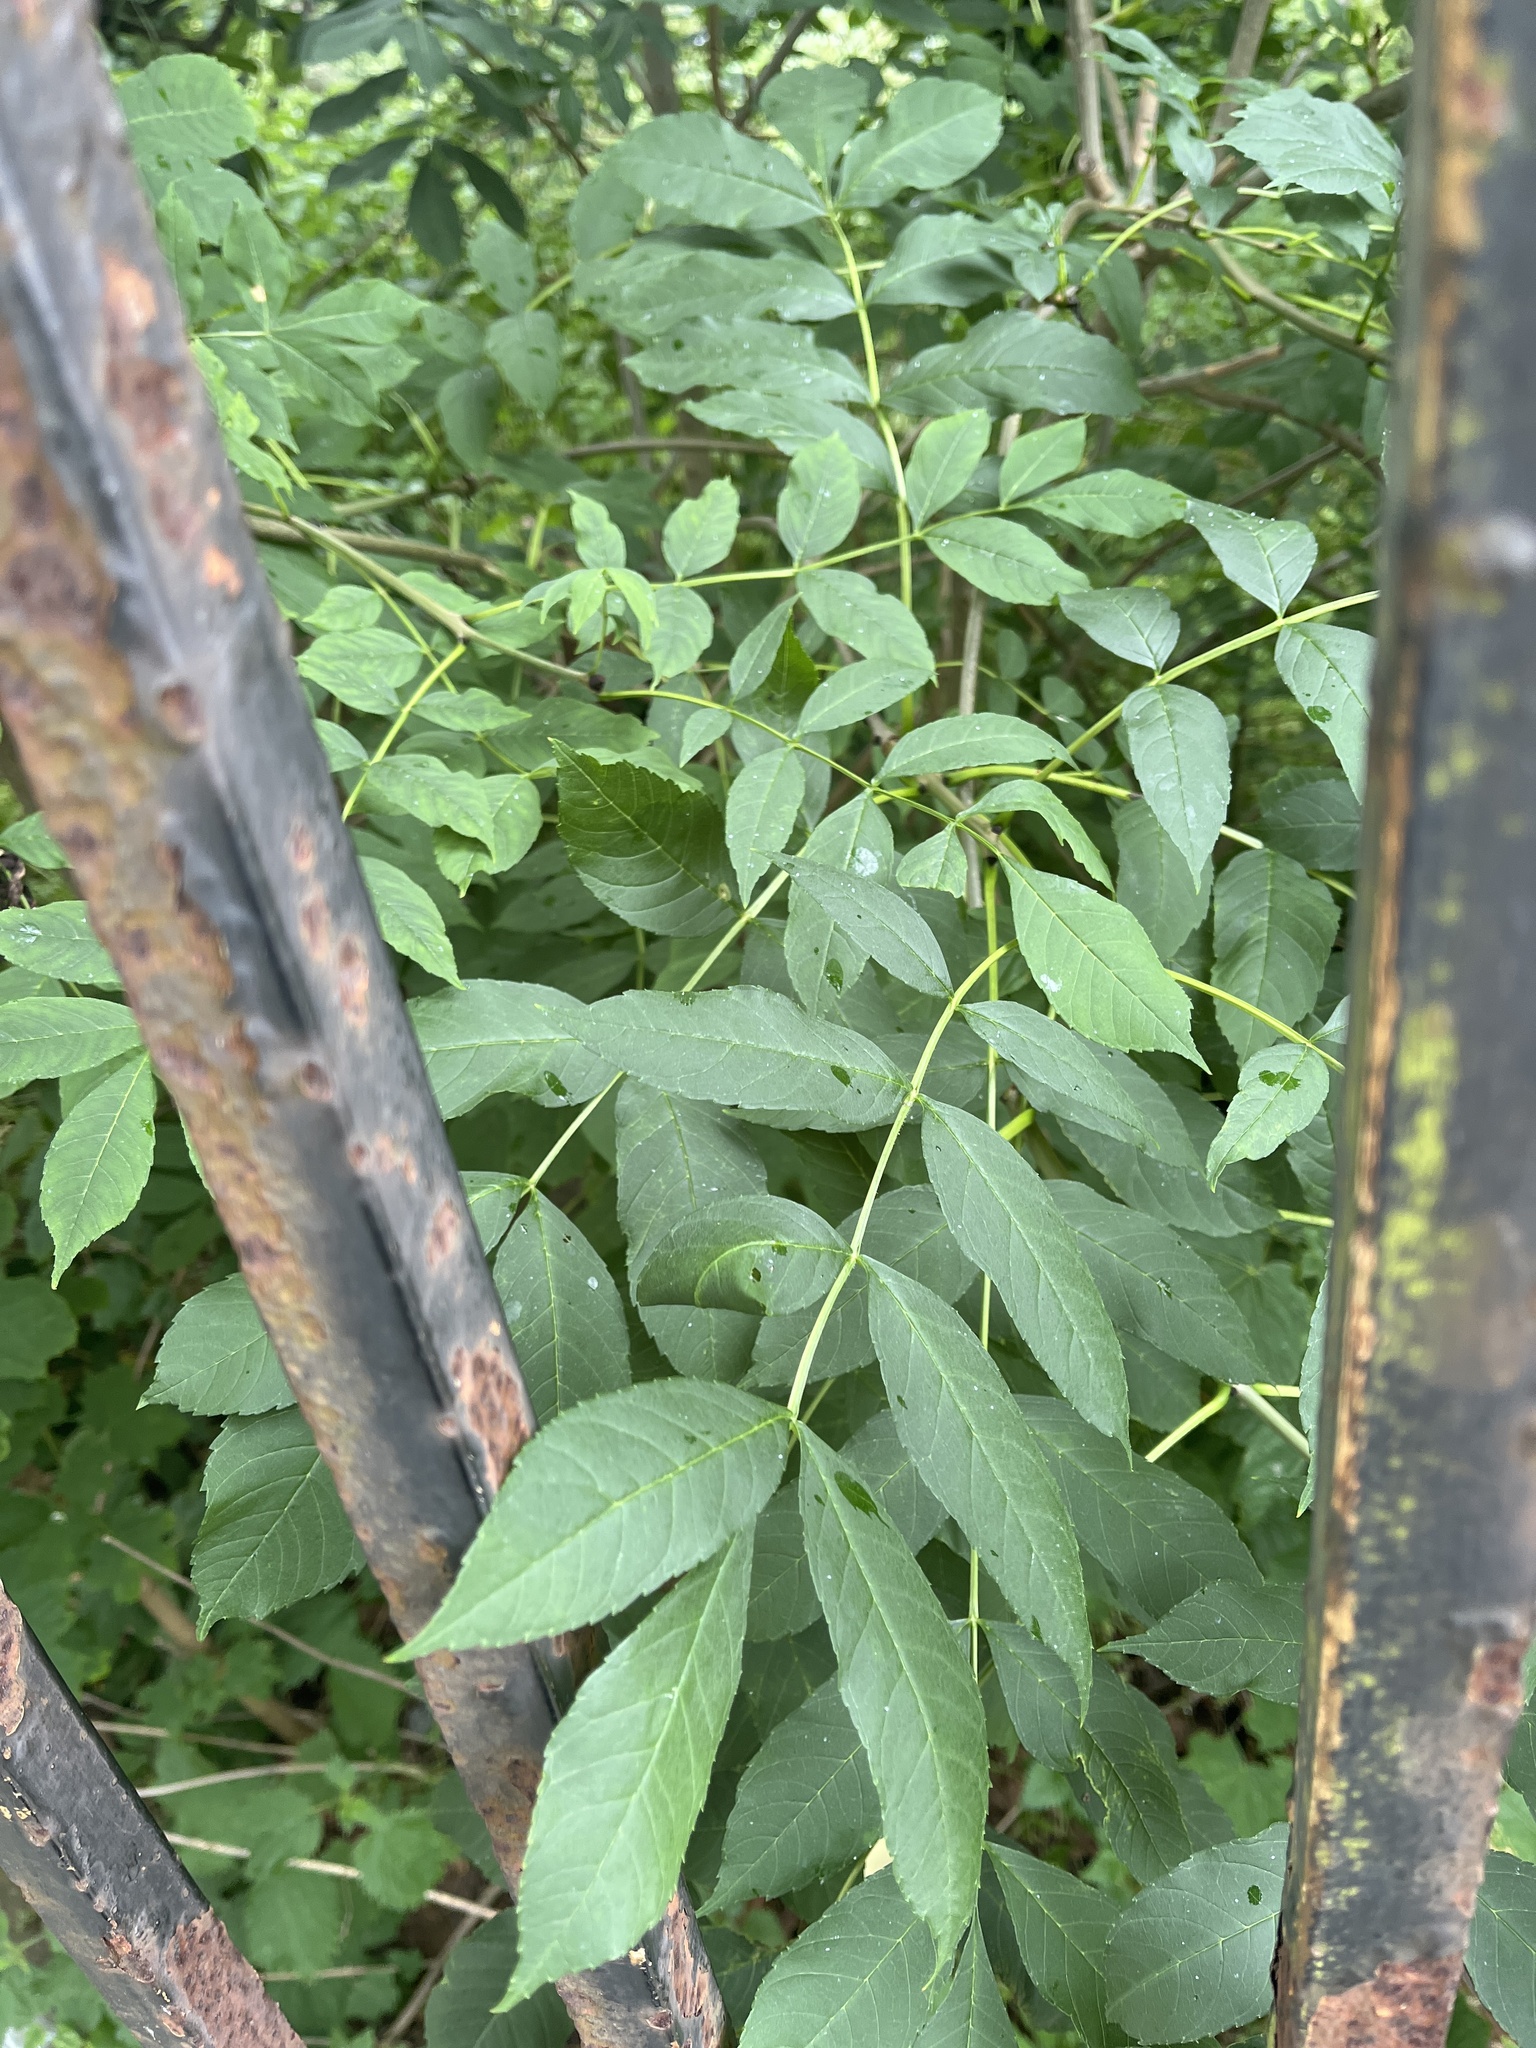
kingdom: Plantae
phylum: Tracheophyta
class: Magnoliopsida
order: Lamiales
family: Oleaceae
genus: Fraxinus
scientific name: Fraxinus excelsior
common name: European ash
